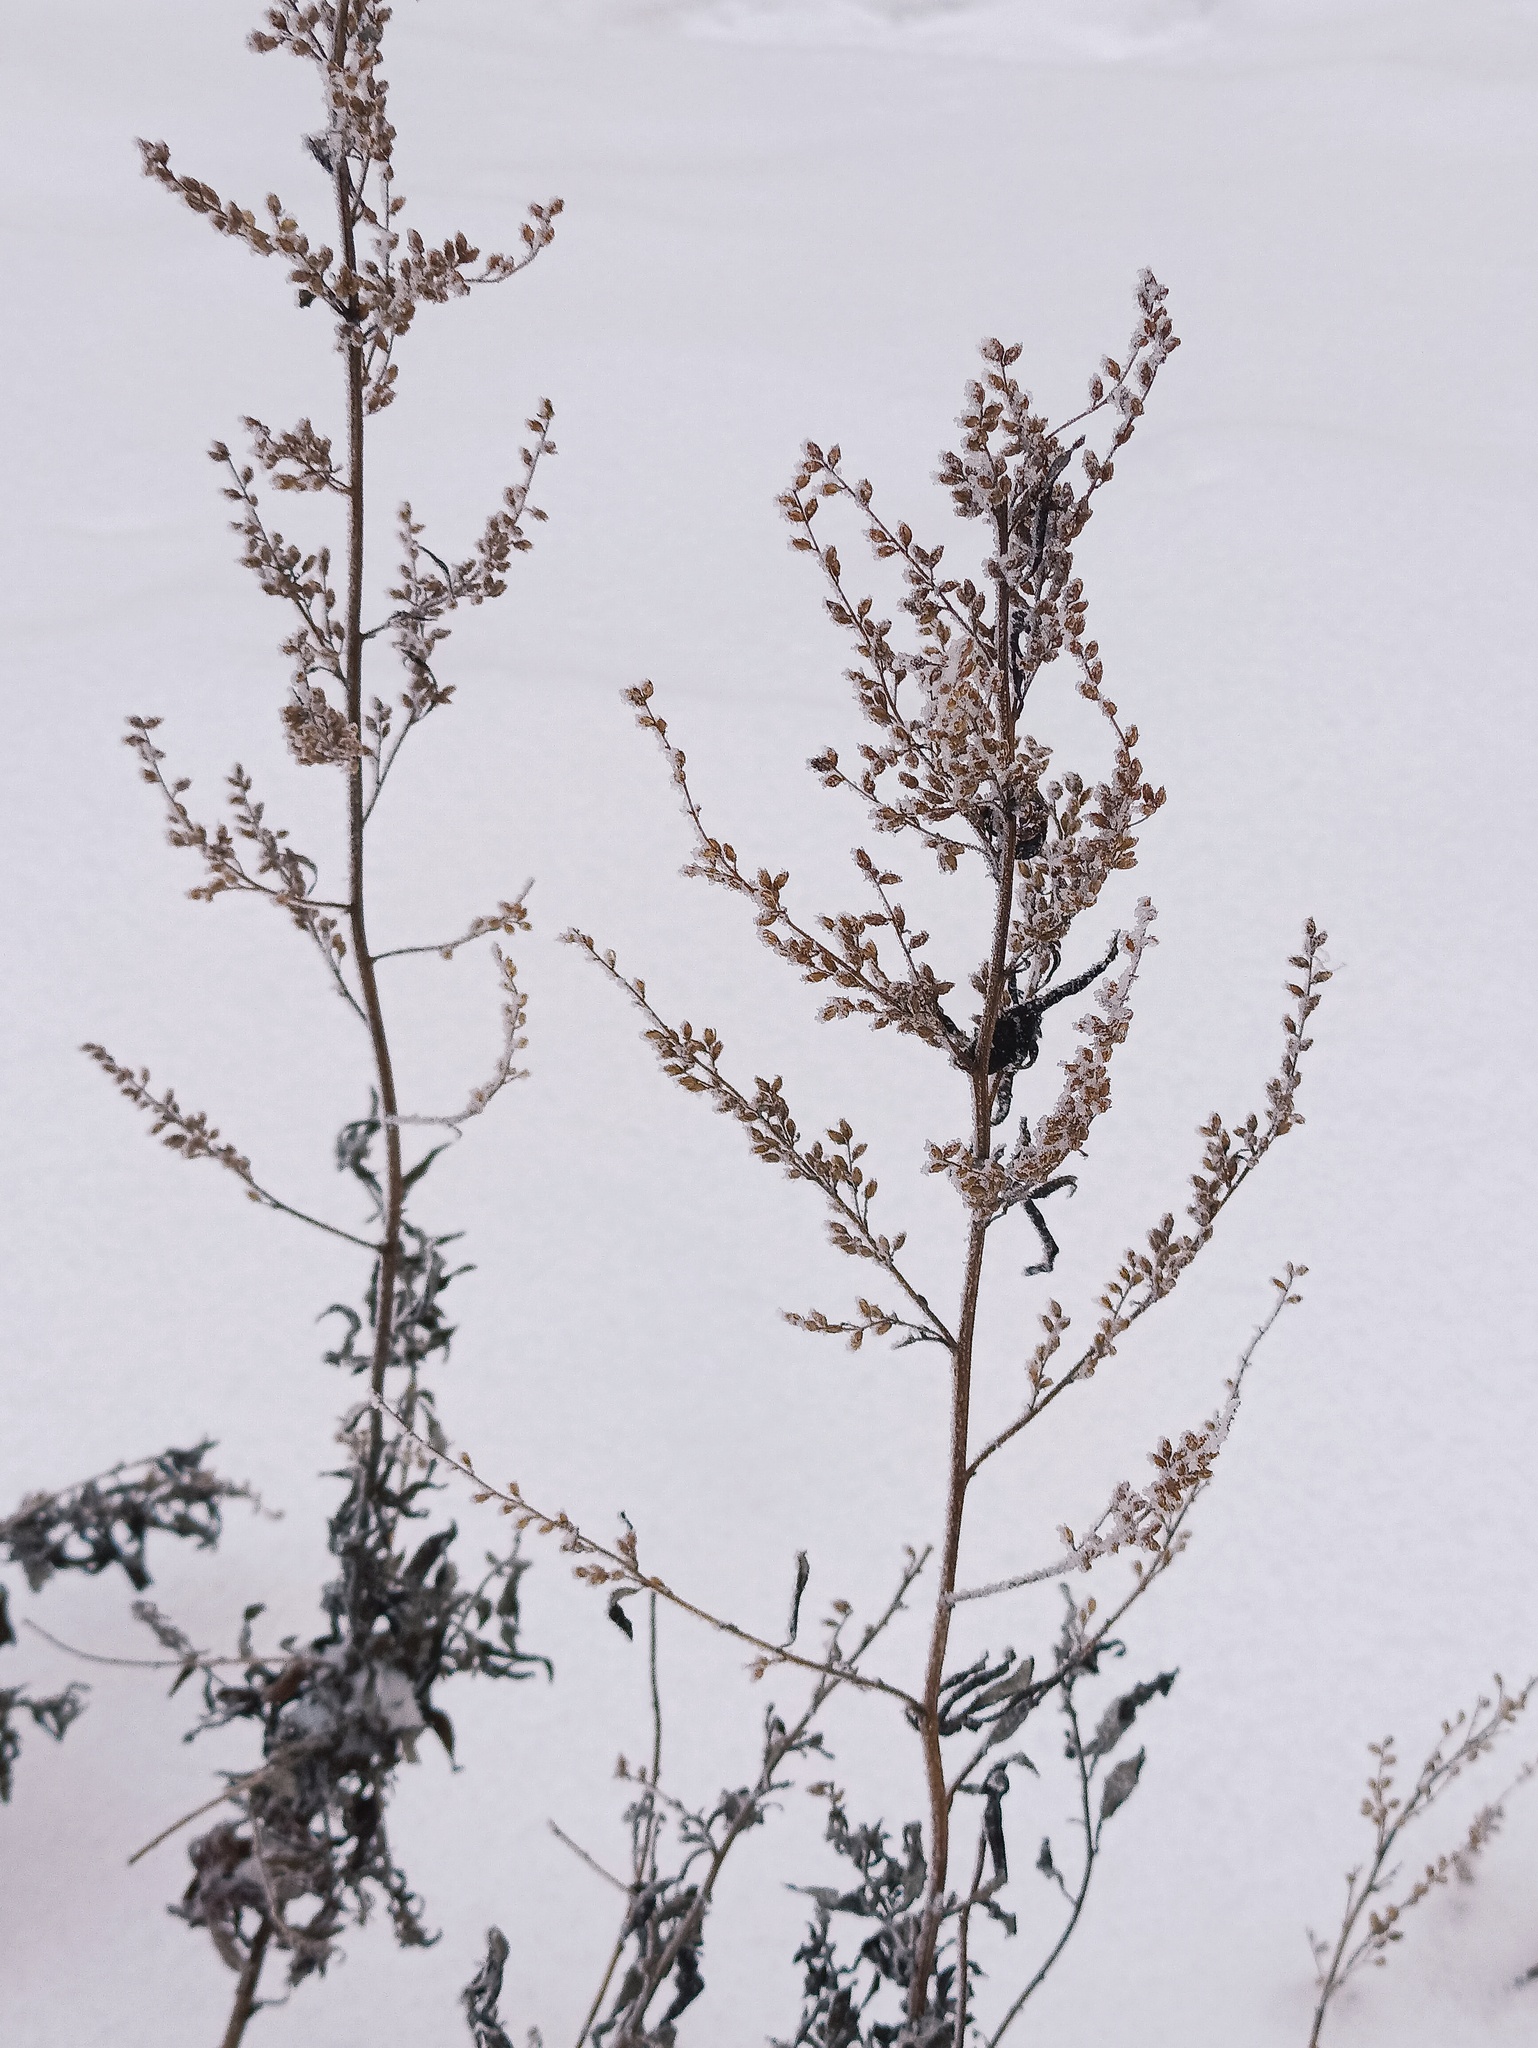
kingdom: Plantae
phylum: Tracheophyta
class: Magnoliopsida
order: Asterales
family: Asteraceae
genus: Artemisia
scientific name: Artemisia vulgaris
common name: Mugwort
